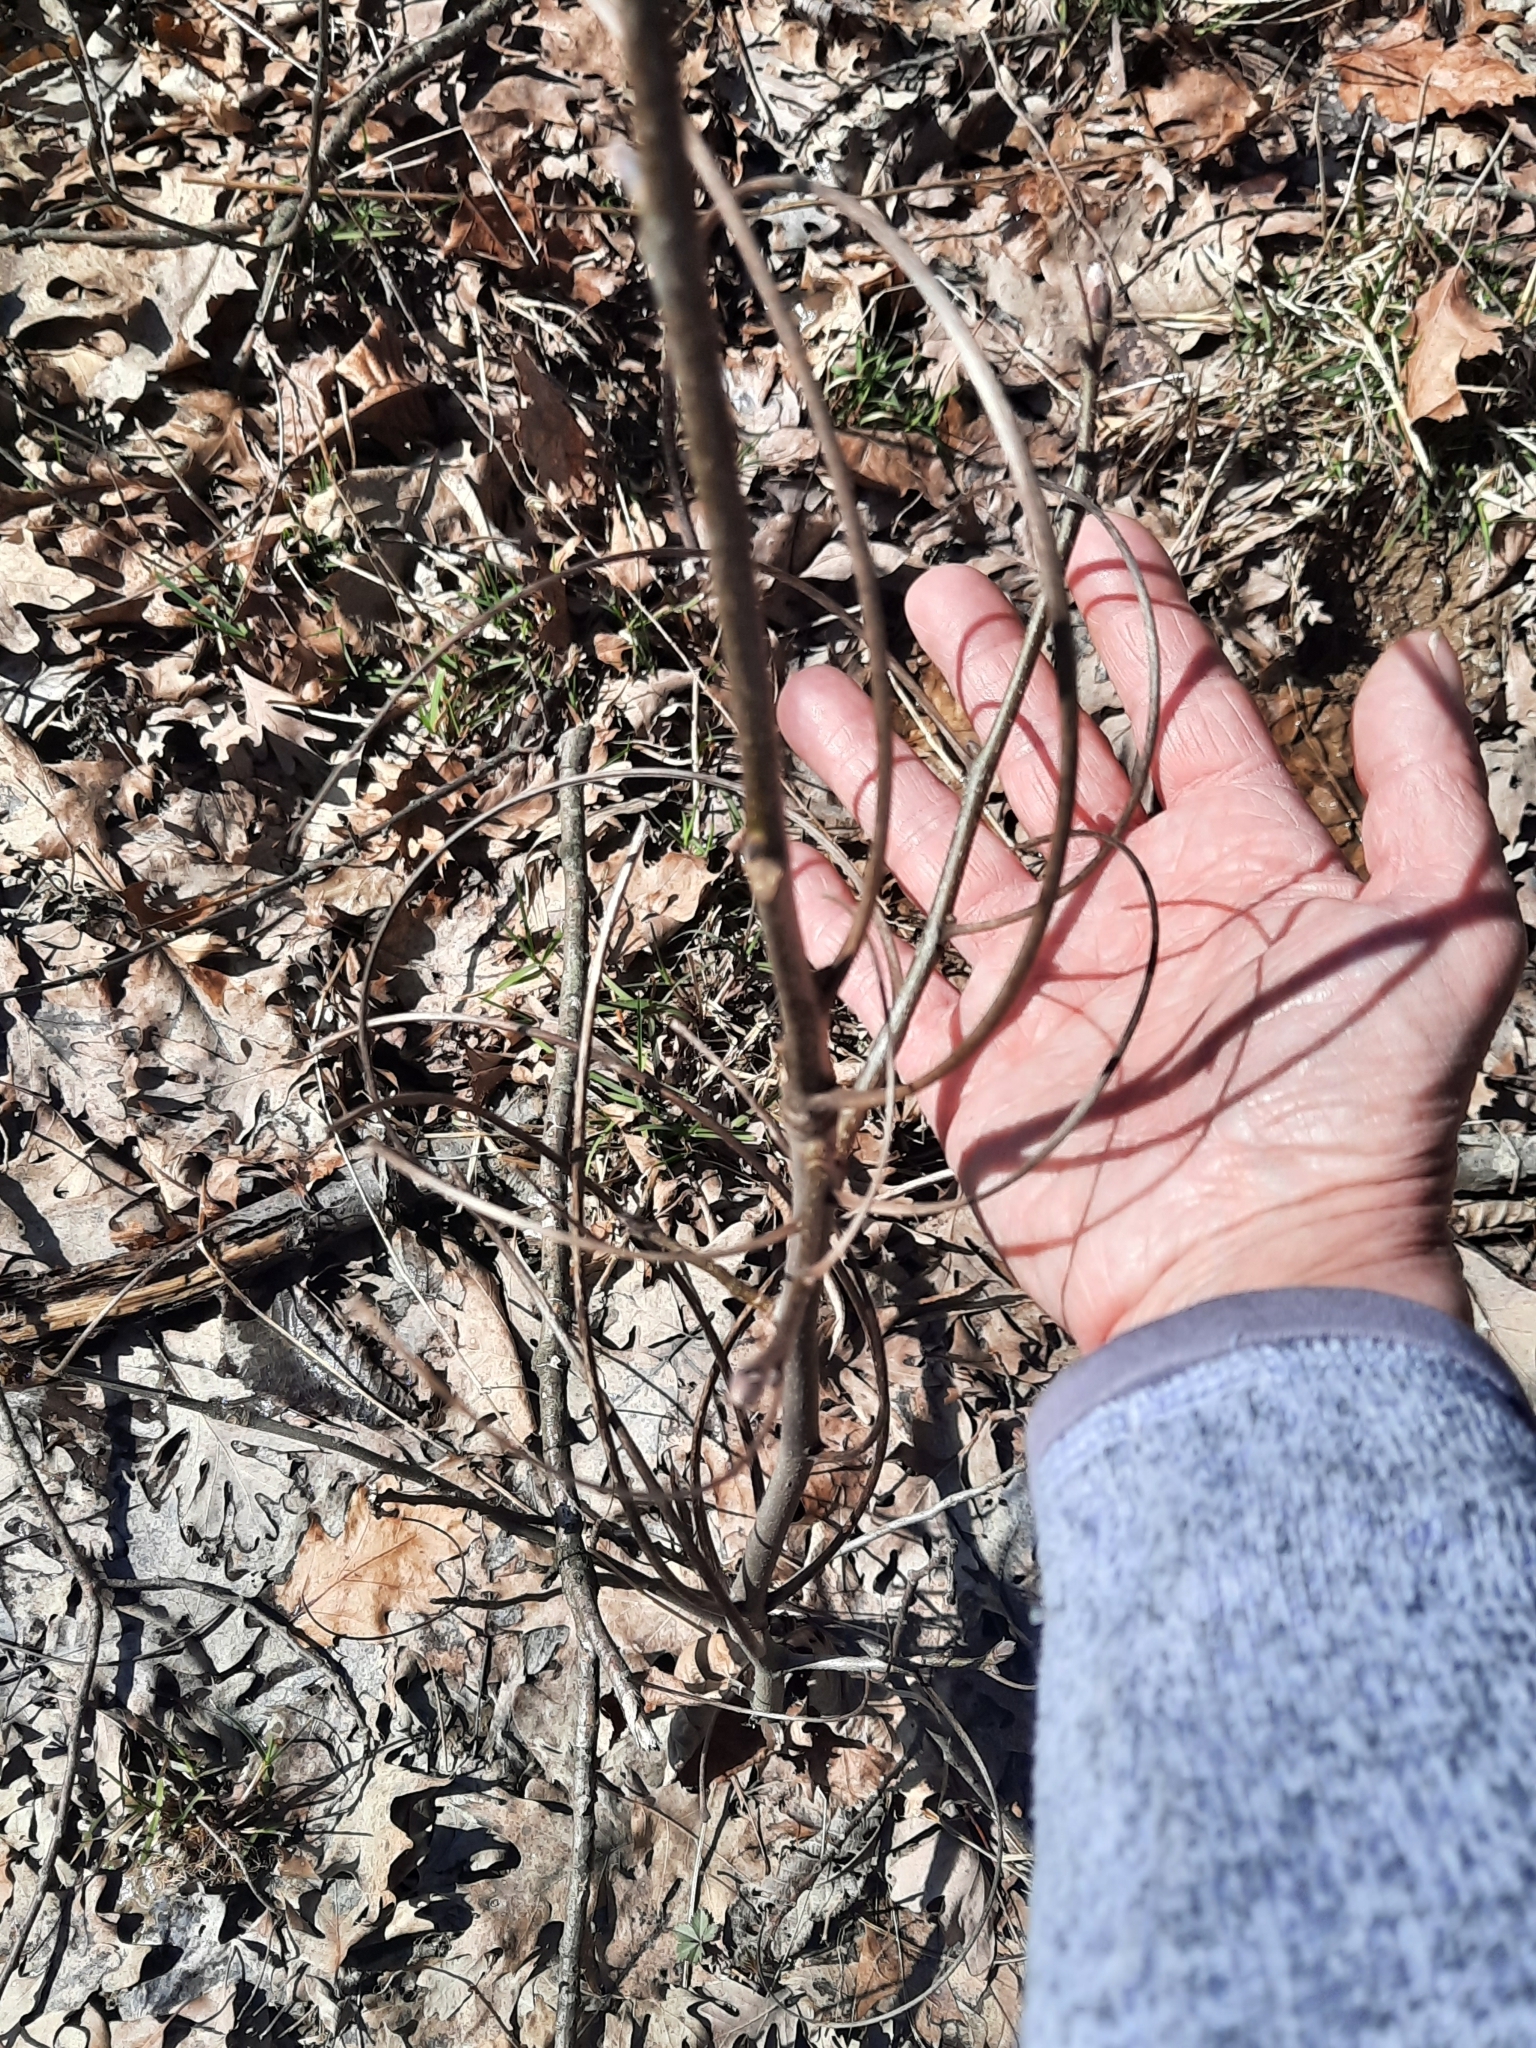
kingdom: Plantae
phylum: Tracheophyta
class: Magnoliopsida
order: Fagales
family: Juglandaceae
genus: Carya
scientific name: Carya ovata
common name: Shagbark hickory
